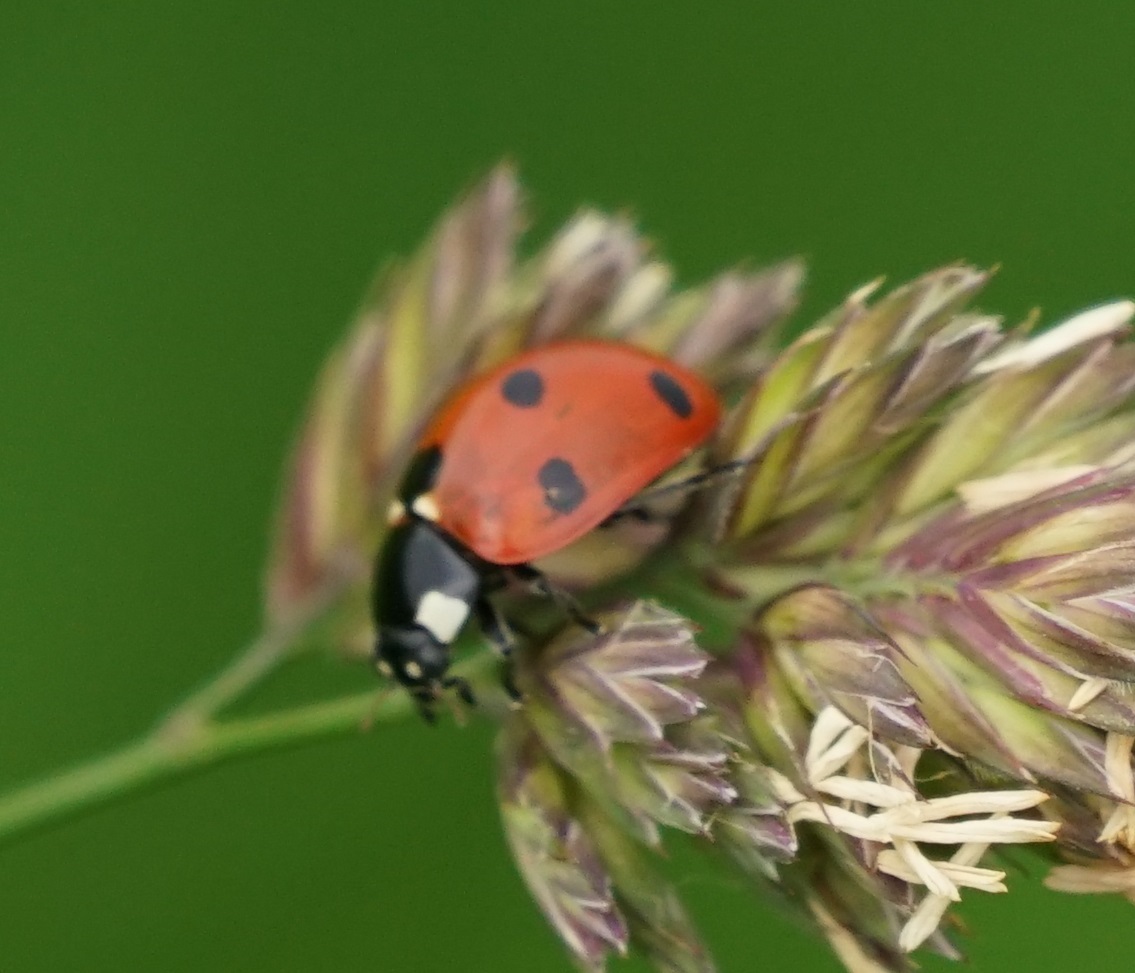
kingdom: Animalia
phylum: Arthropoda
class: Insecta
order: Coleoptera
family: Coccinellidae
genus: Coccinella
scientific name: Coccinella septempunctata
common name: Sevenspotted lady beetle
